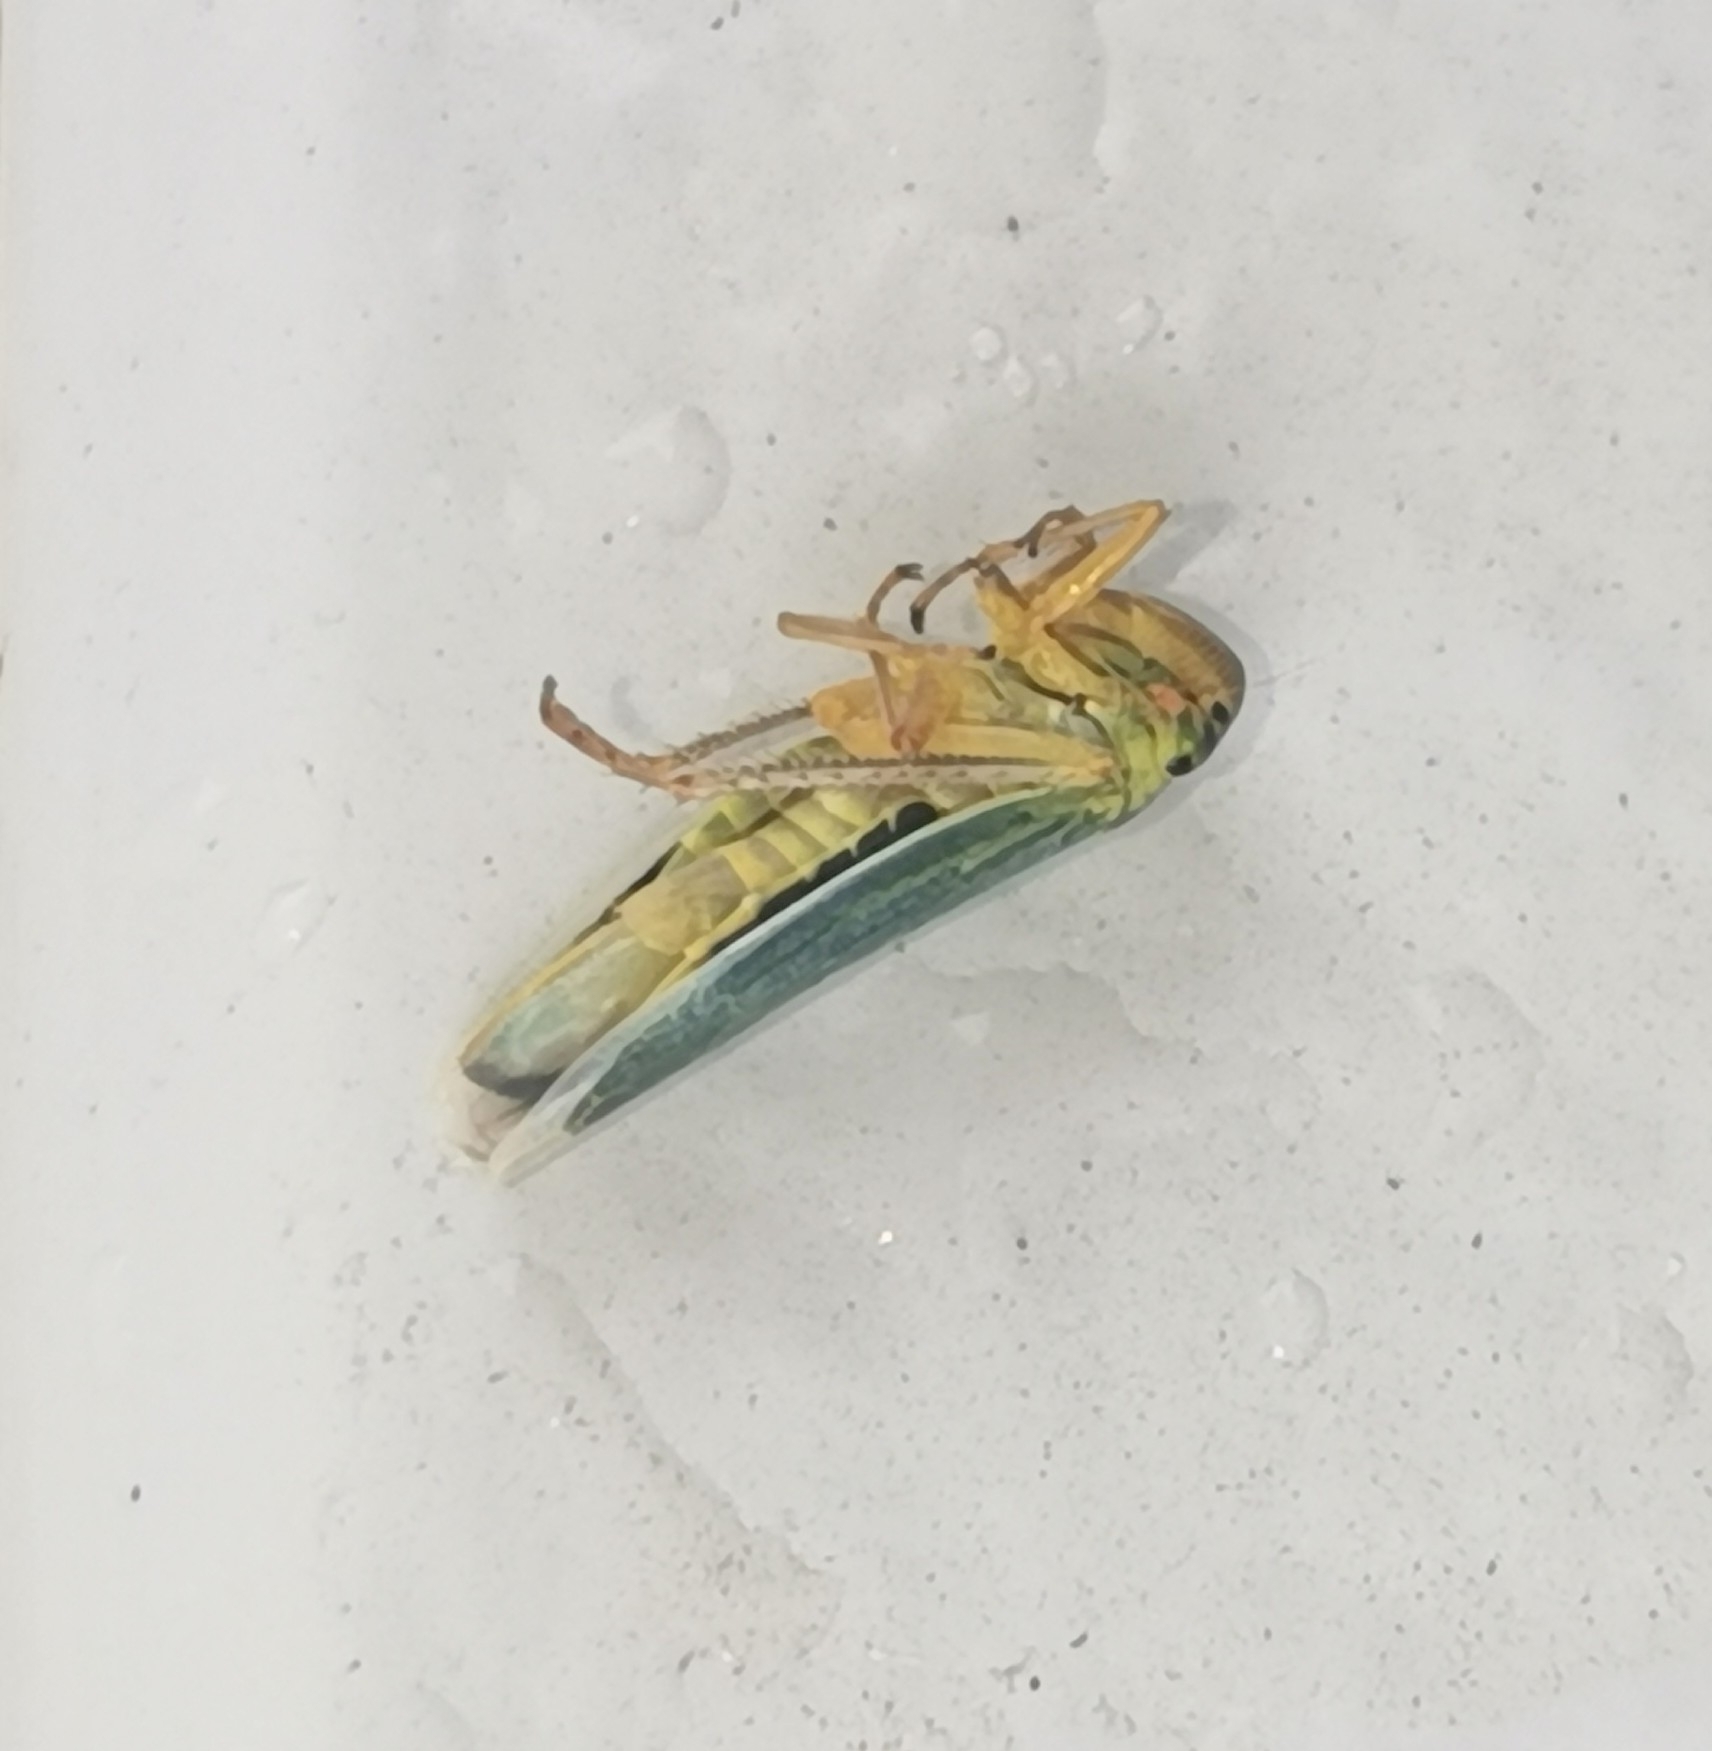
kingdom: Animalia
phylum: Arthropoda
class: Insecta
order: Hemiptera
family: Cicadellidae
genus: Cicadella
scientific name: Cicadella viridis
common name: Leafhopper
